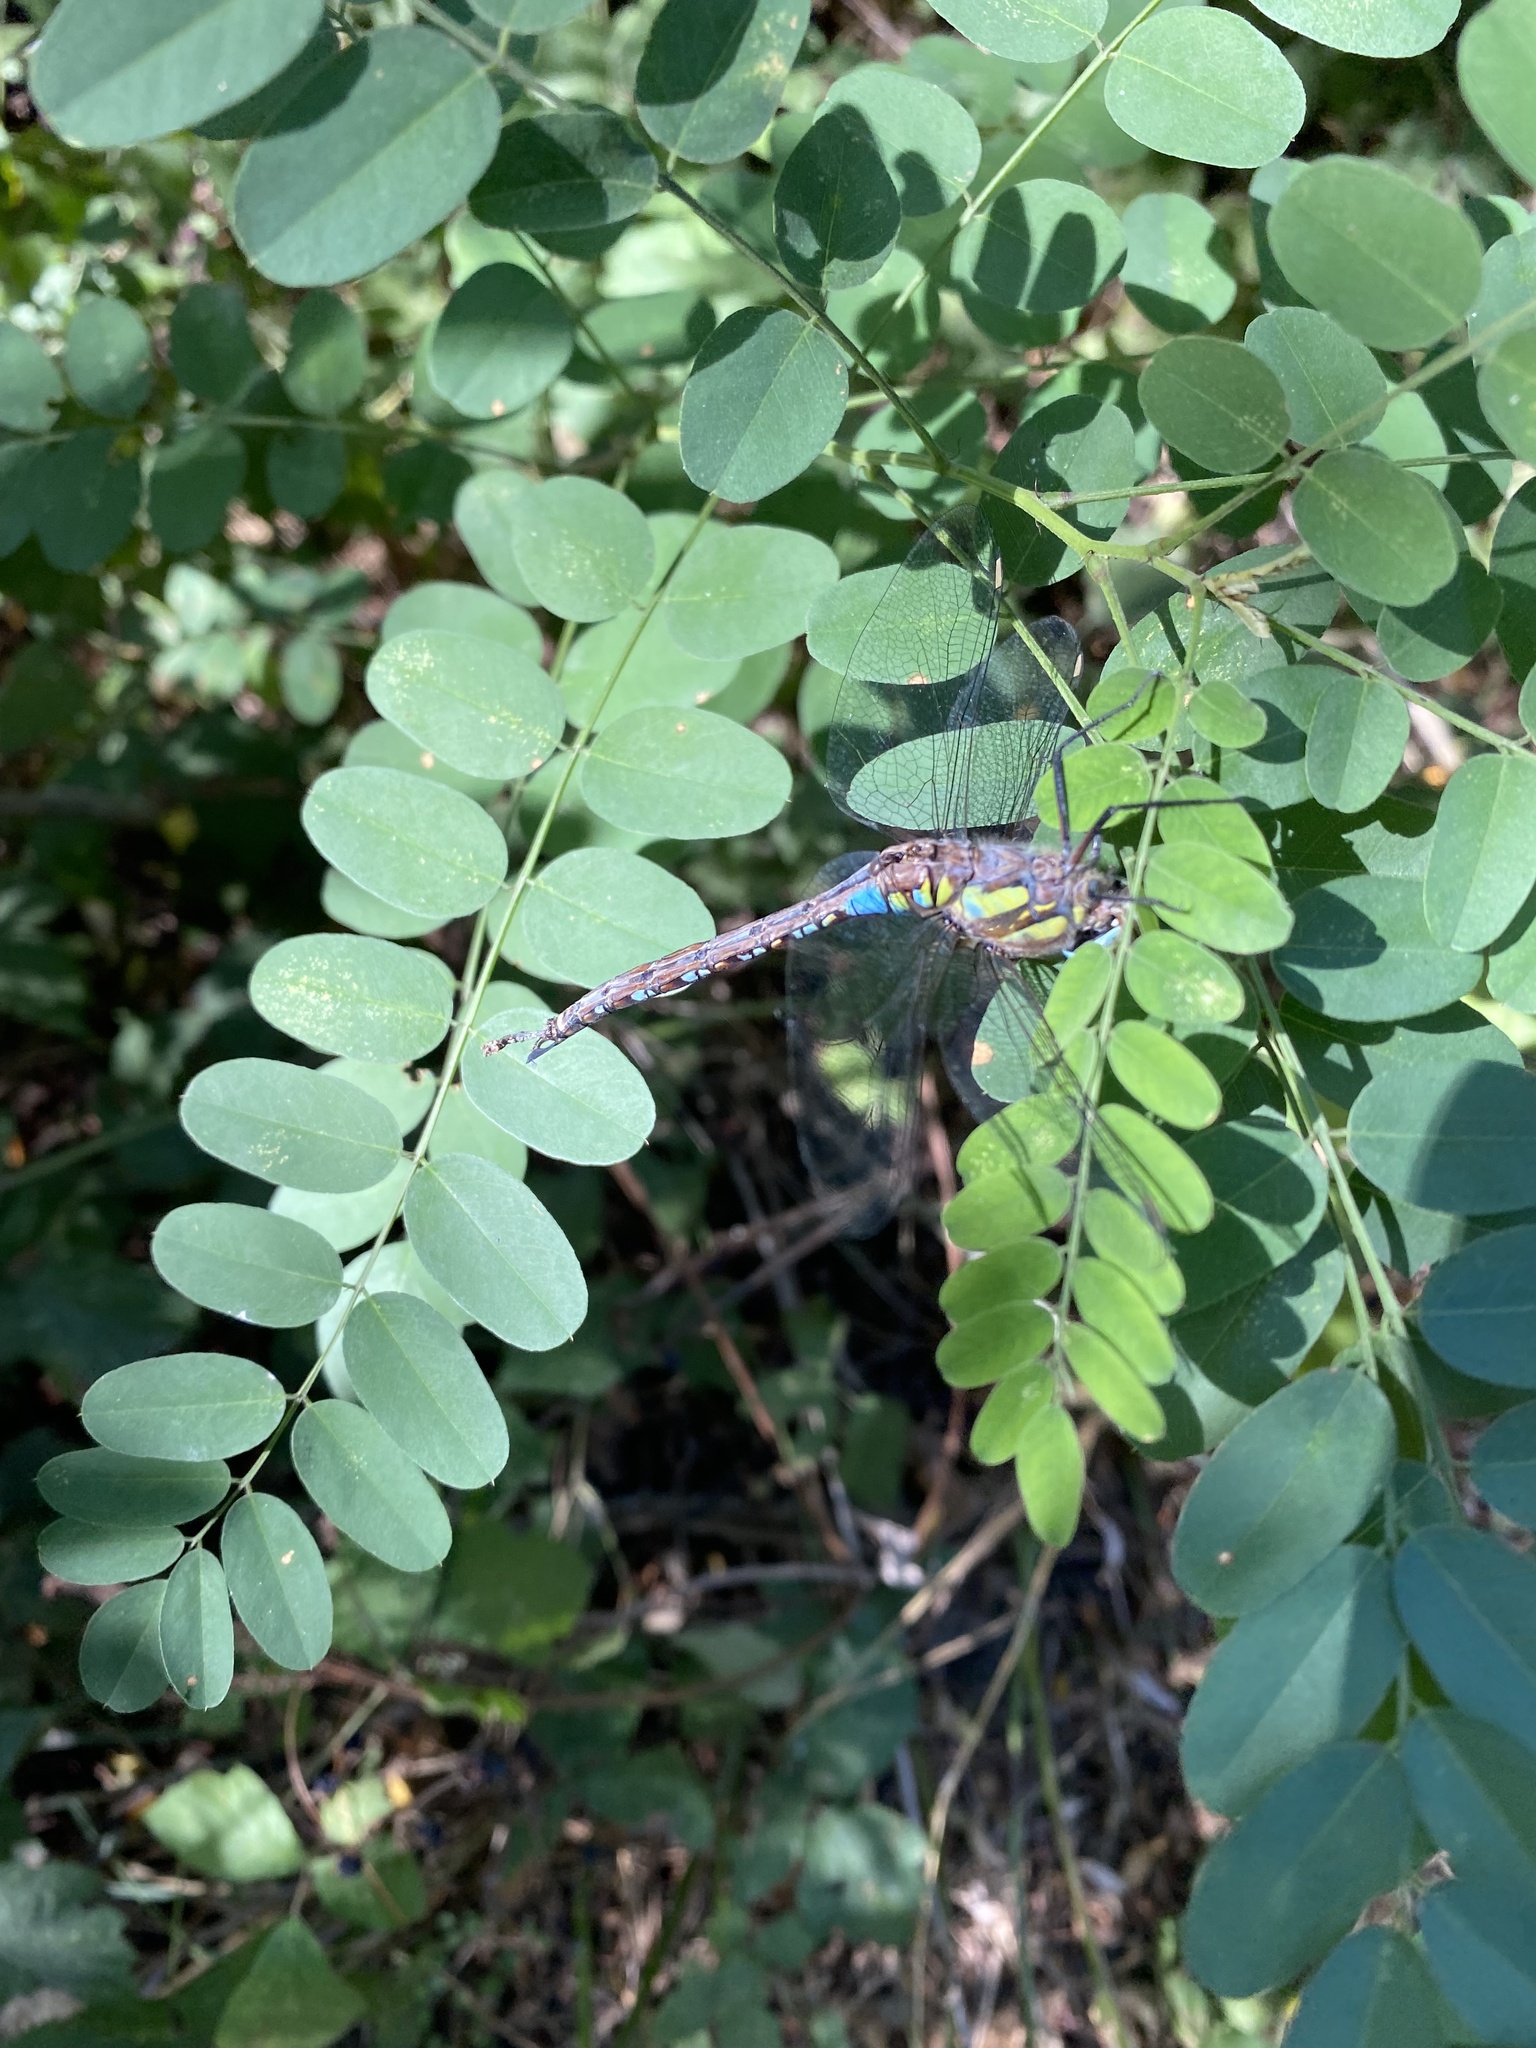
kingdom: Animalia
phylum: Arthropoda
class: Insecta
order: Odonata
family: Aeshnidae
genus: Aeshna
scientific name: Aeshna mixta
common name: Migrant hawker
